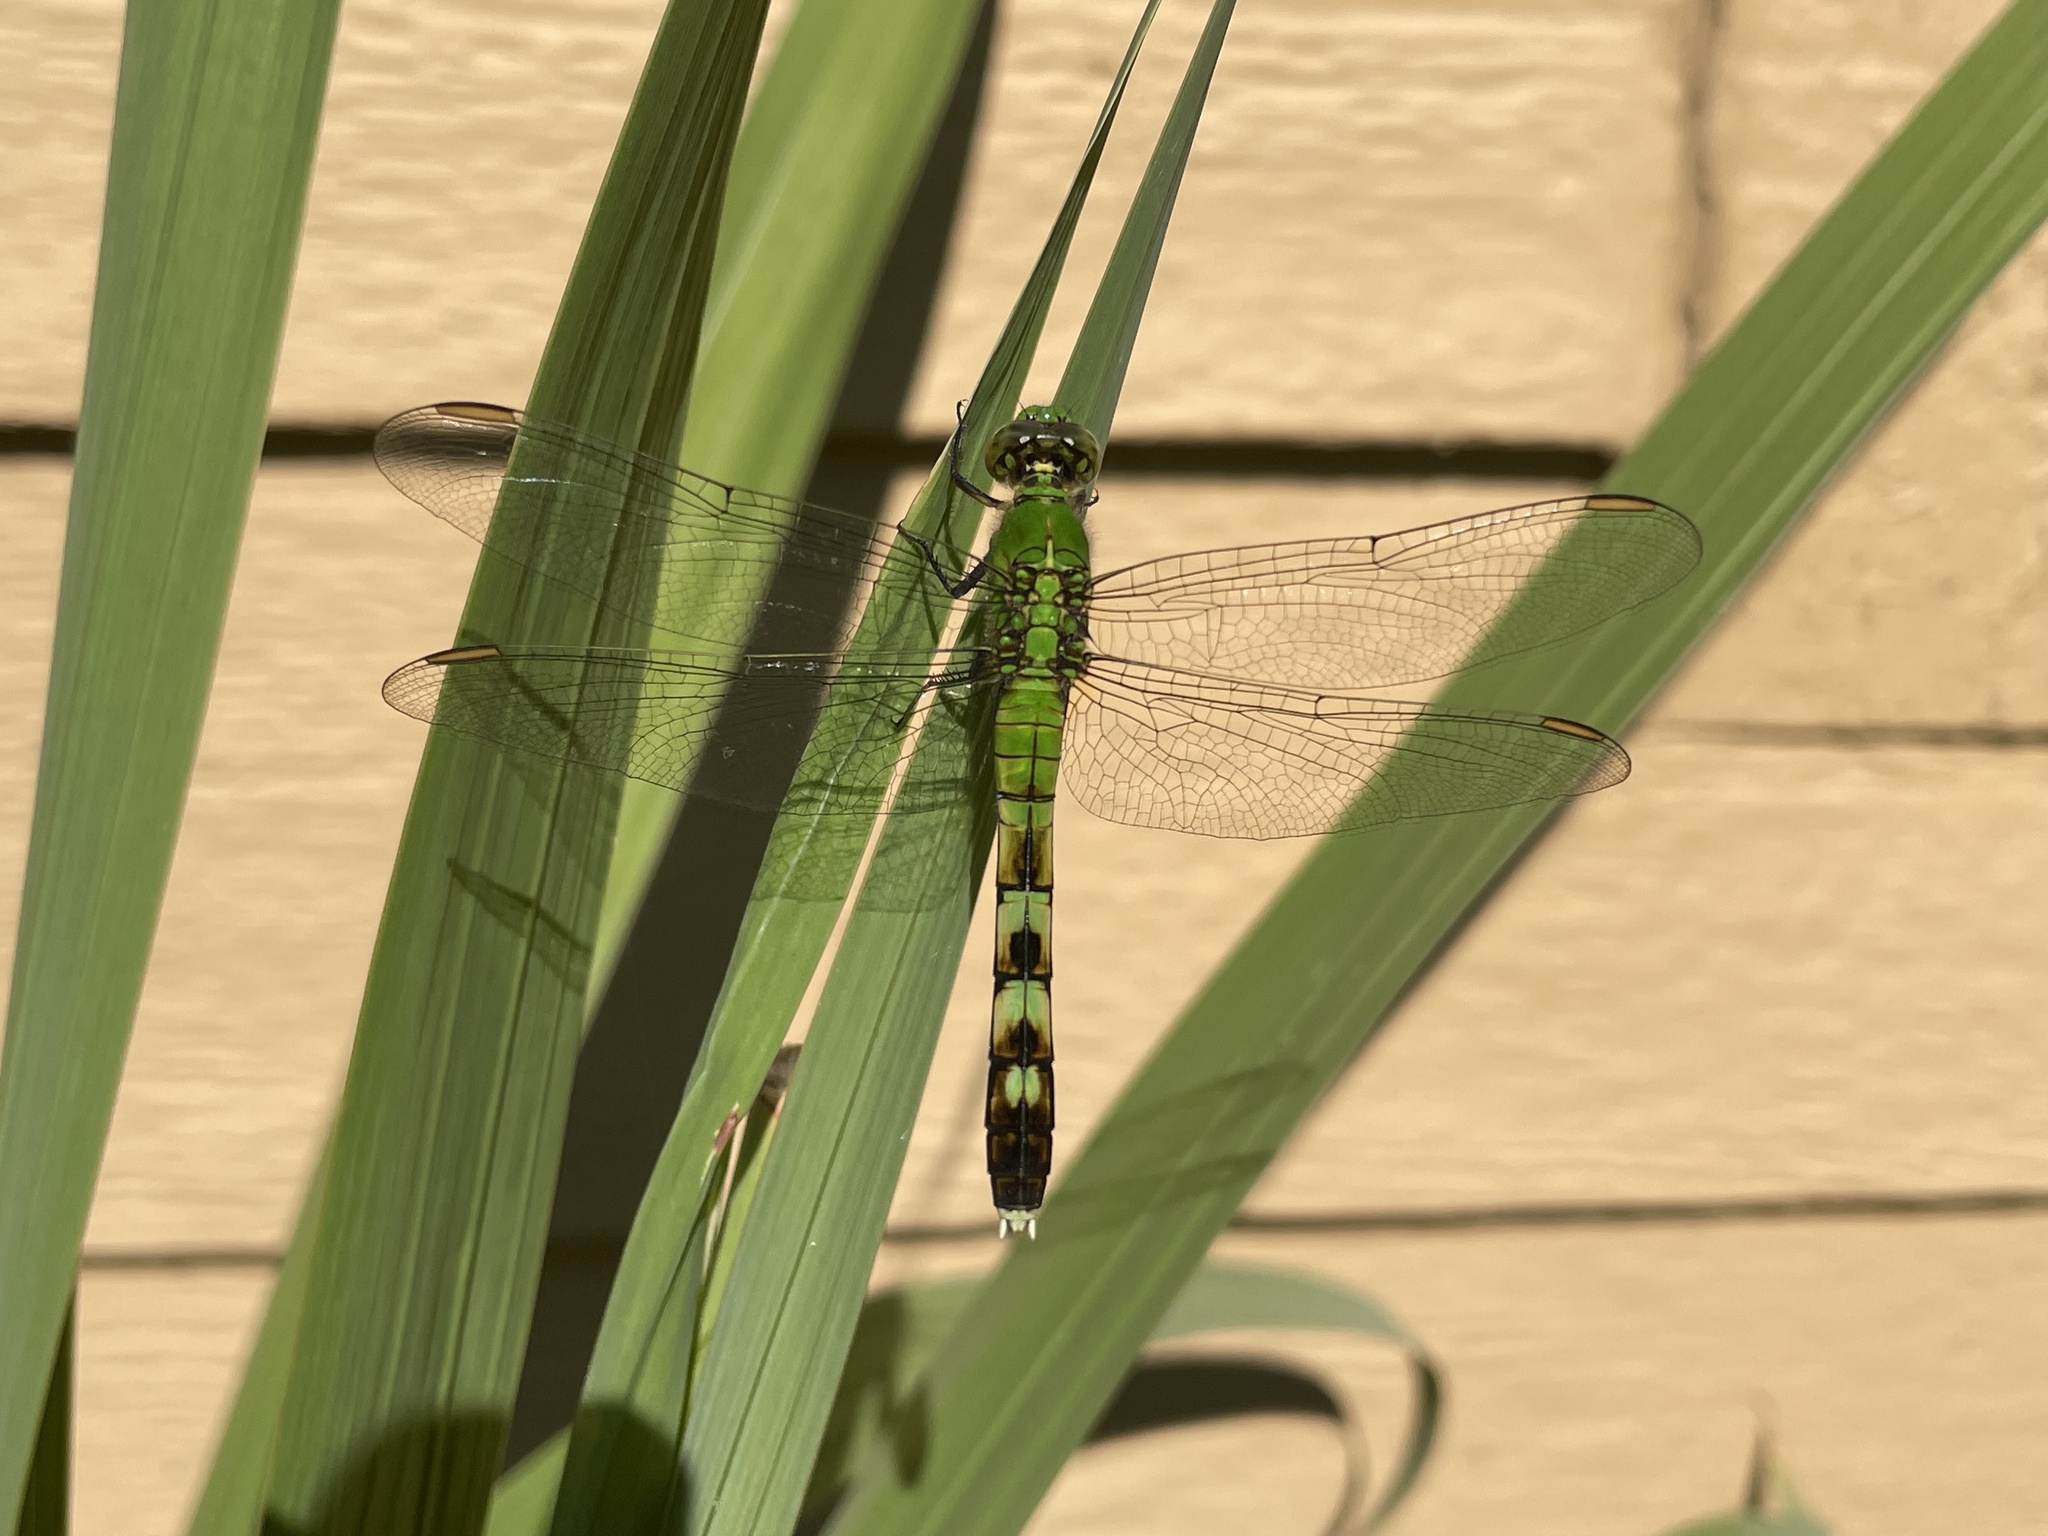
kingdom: Animalia
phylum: Arthropoda
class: Insecta
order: Odonata
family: Libellulidae
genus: Erythemis
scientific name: Erythemis simplicicollis
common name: Eastern pondhawk
